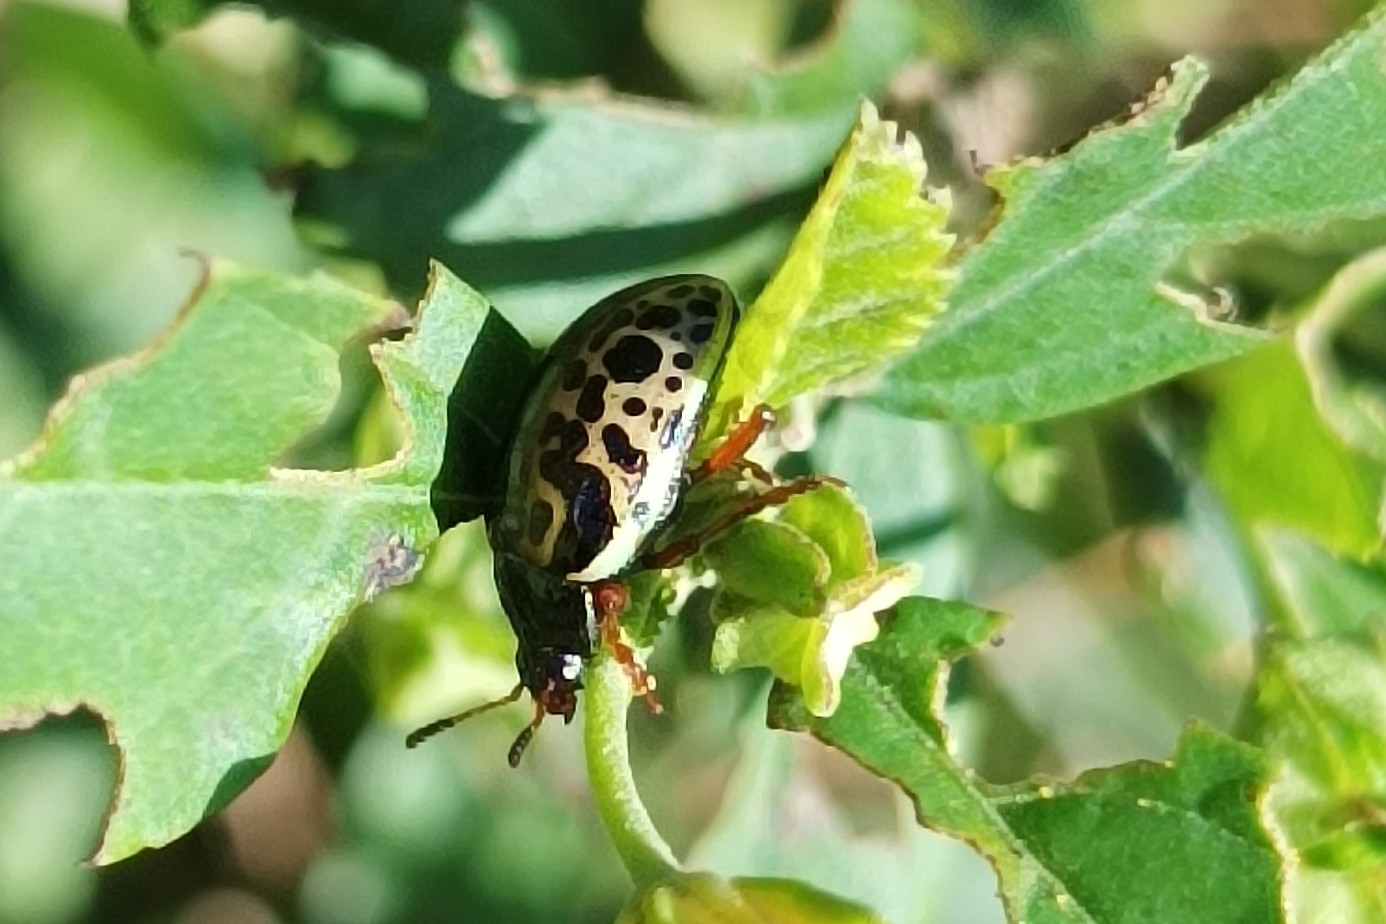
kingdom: Animalia
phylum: Arthropoda
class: Insecta
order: Coleoptera
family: Chrysomelidae
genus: Calligrapha
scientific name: Calligrapha pantherina
